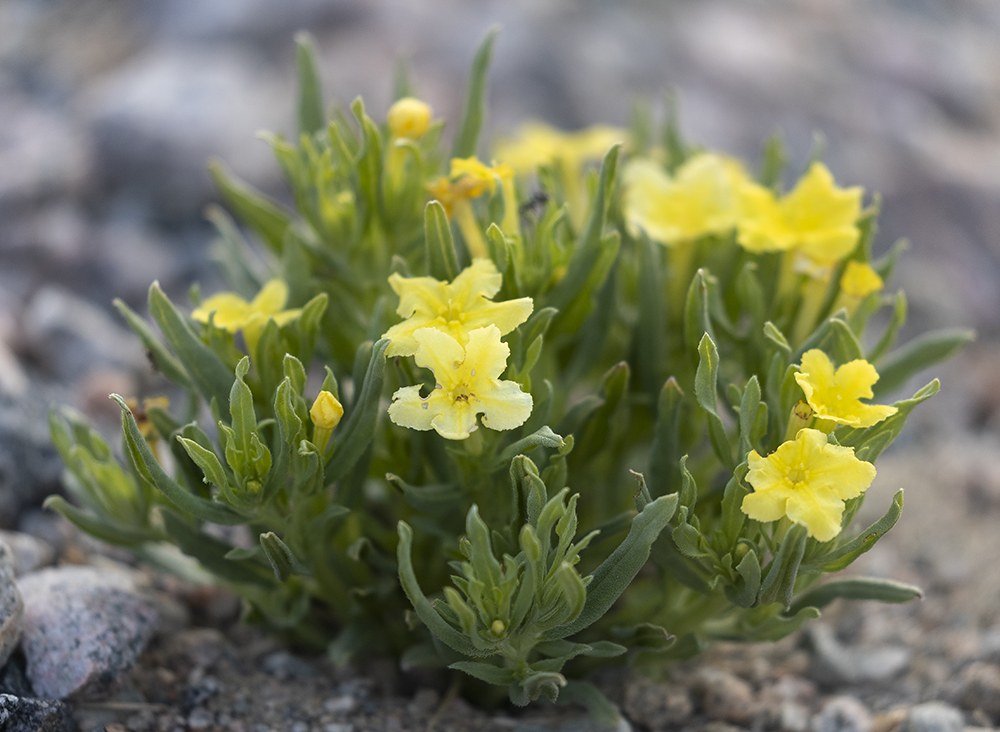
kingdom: Plantae
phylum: Tracheophyta
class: Magnoliopsida
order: Boraginales
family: Boraginaceae
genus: Lithospermum
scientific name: Lithospermum incisum
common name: Fringed gromwell
